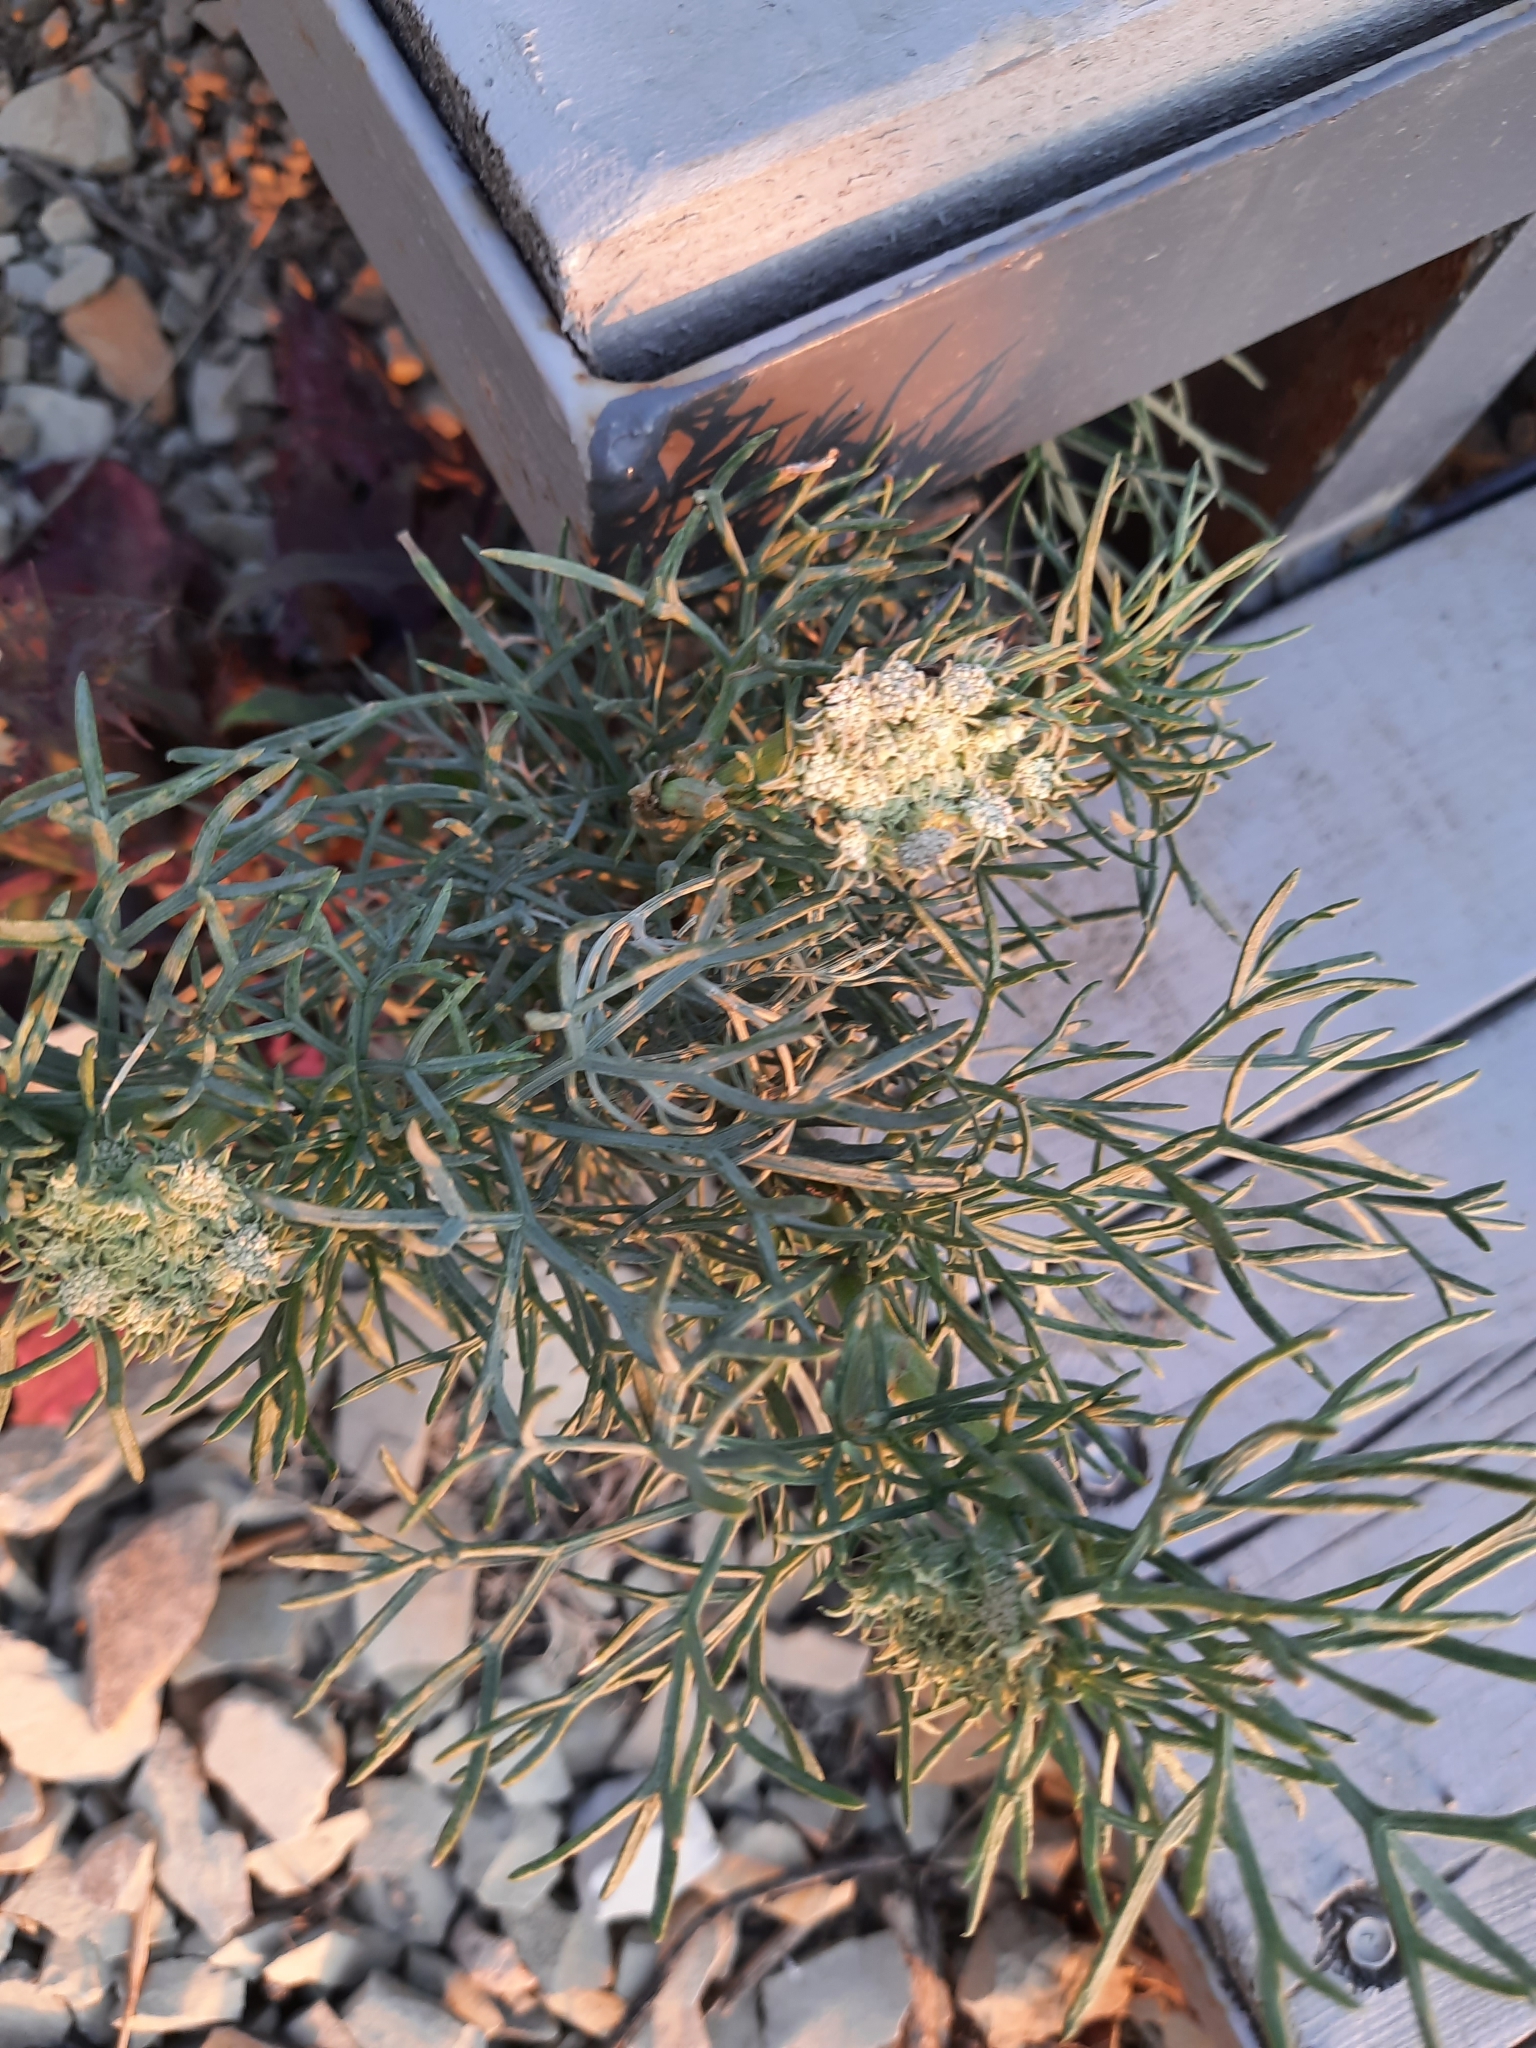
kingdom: Plantae
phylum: Tracheophyta
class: Magnoliopsida
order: Apiales
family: Apiaceae
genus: Seseli
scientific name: Seseli ponticum
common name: Pontic seseli
